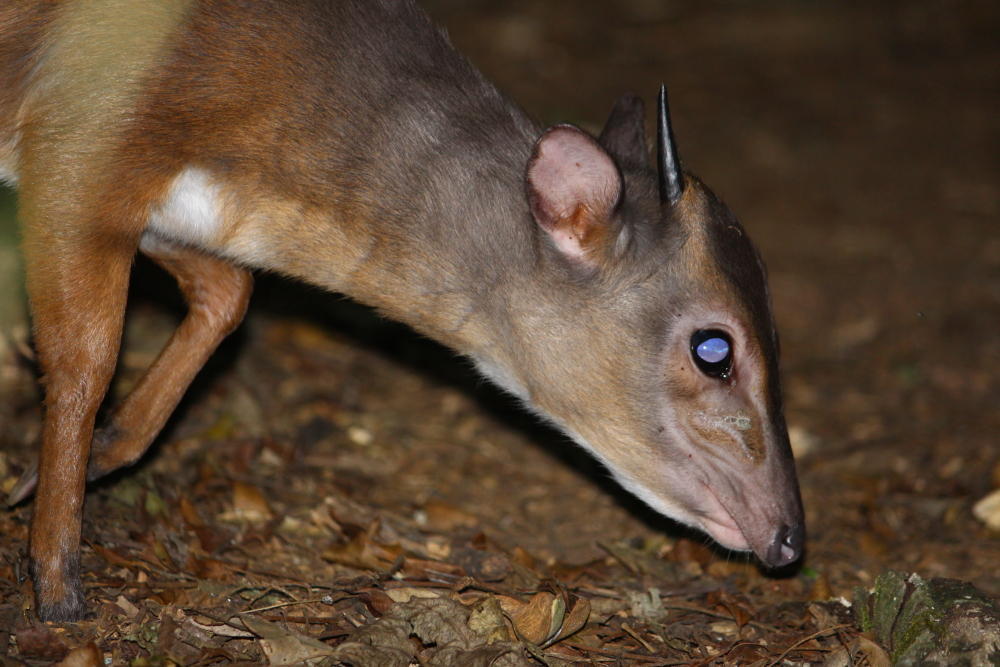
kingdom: Animalia
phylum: Chordata
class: Mammalia
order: Artiodactyla
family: Bovidae
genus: Philantomba
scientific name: Philantomba monticola
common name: Blue duiker
